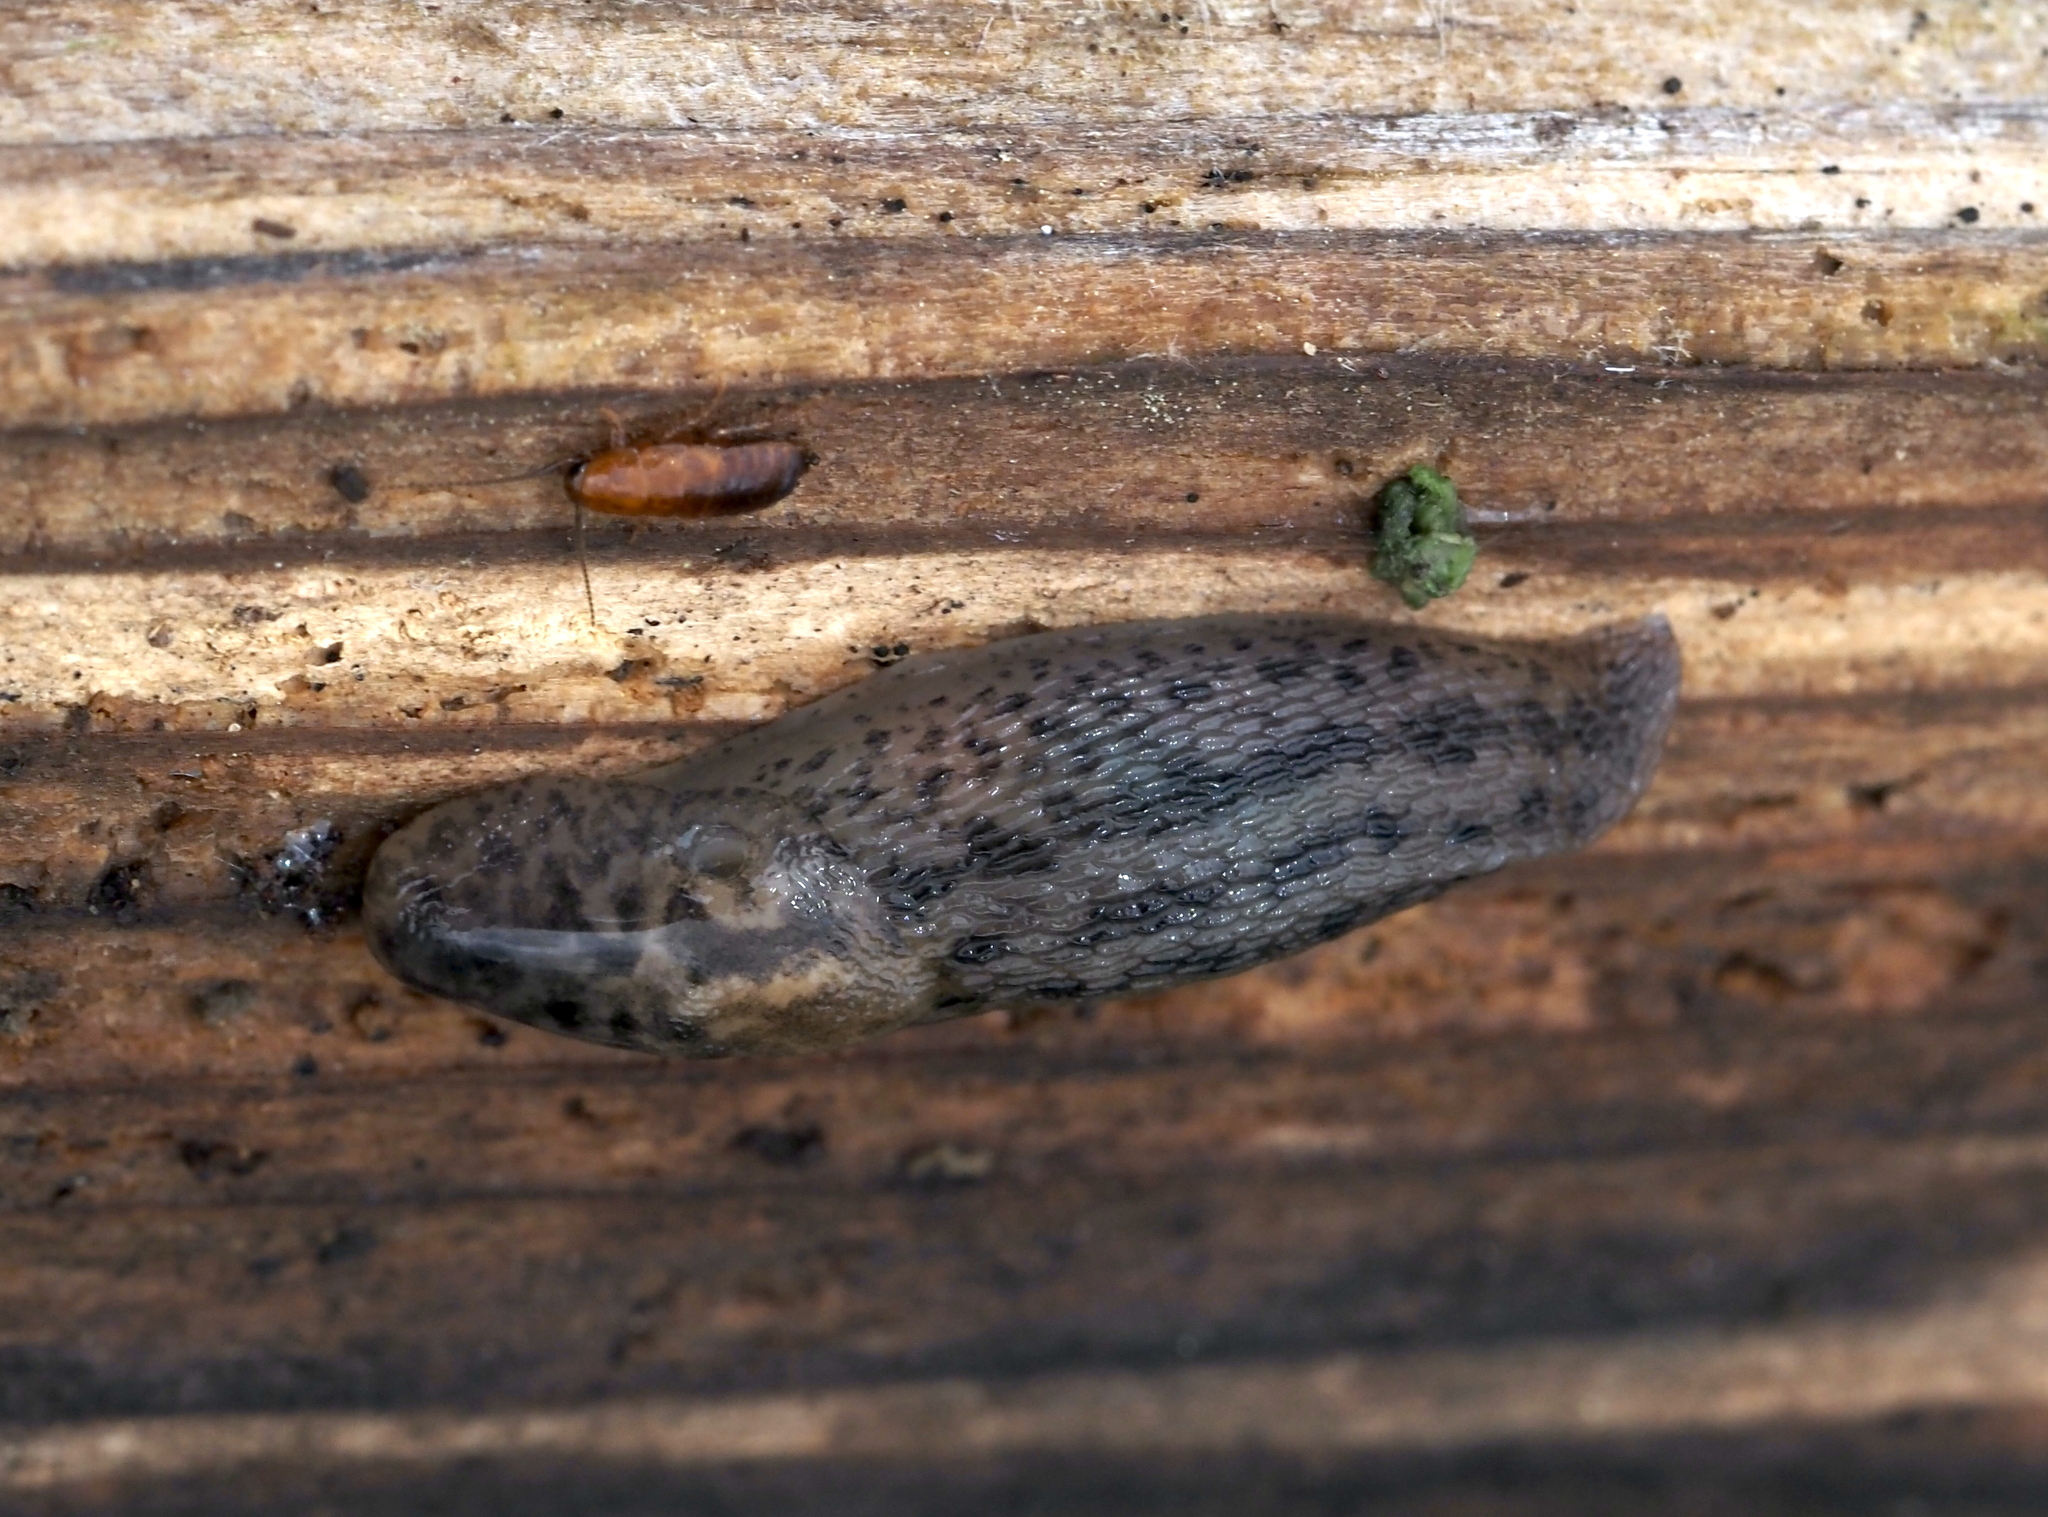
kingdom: Animalia
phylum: Mollusca
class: Gastropoda
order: Stylommatophora
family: Limacidae
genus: Limax
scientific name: Limax maximus
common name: Great grey slug
